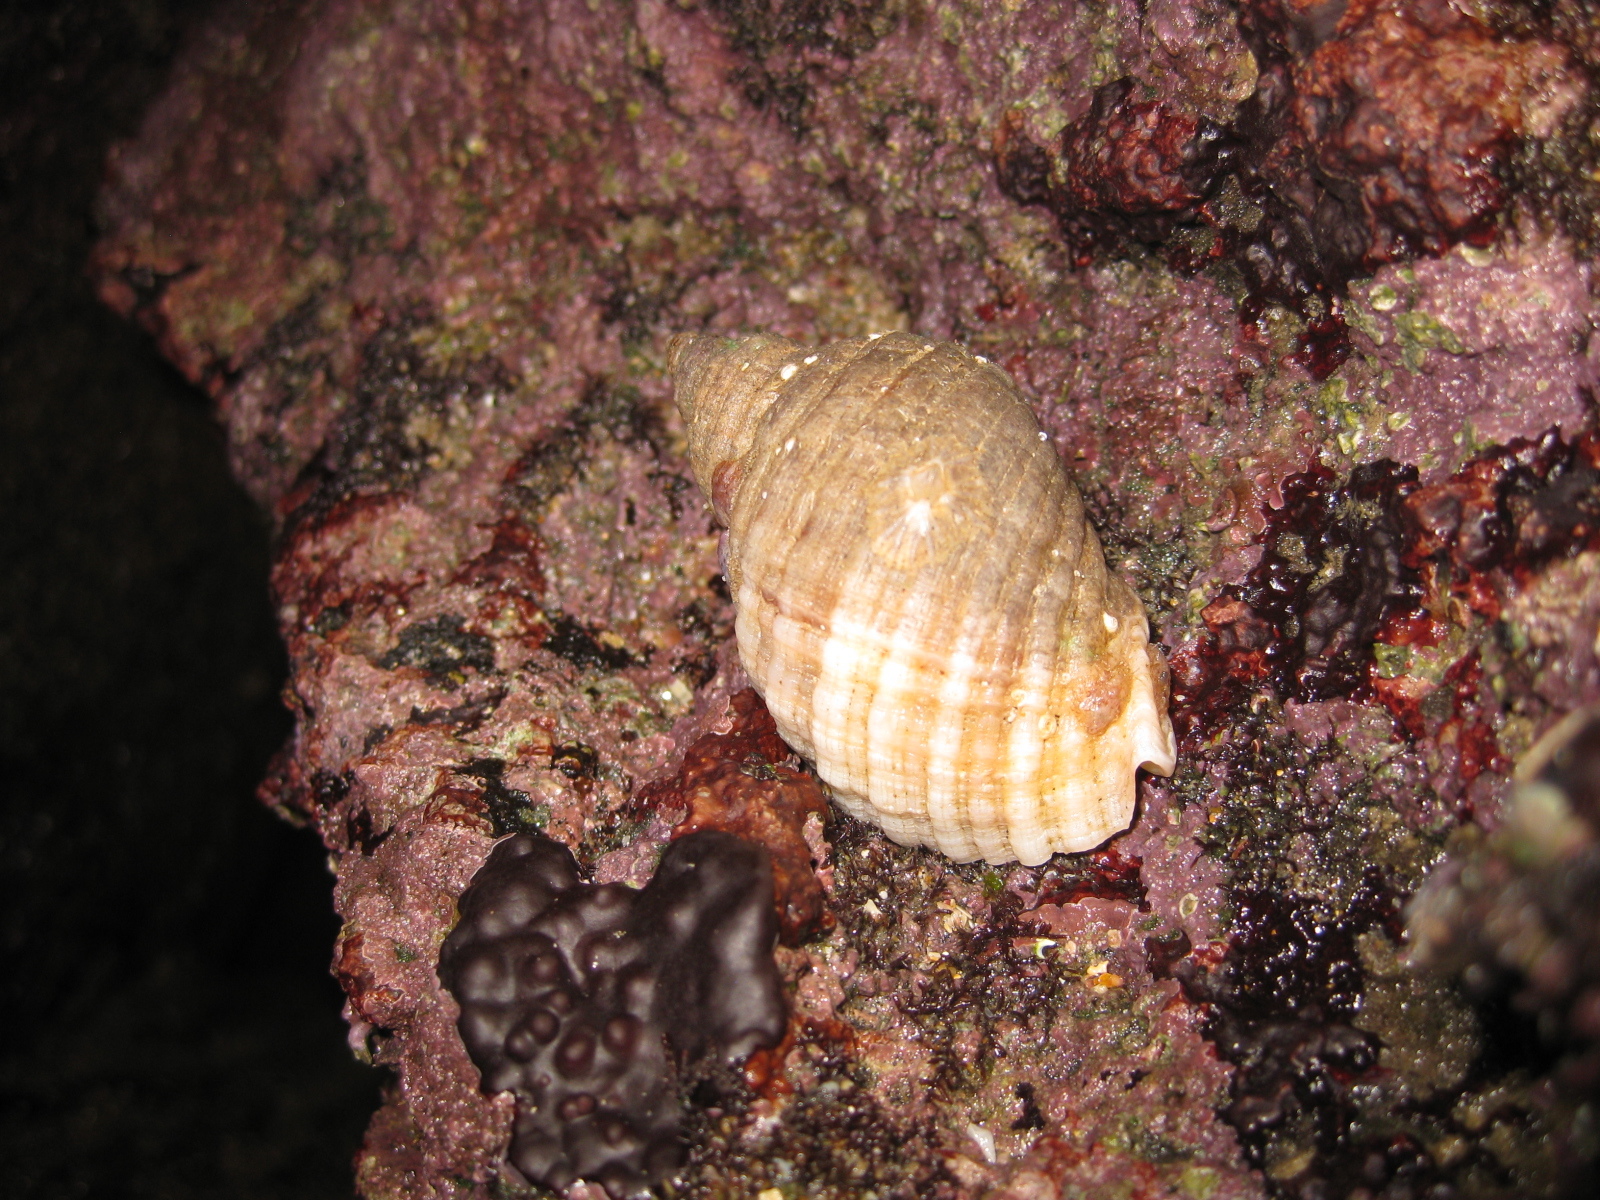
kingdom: Animalia
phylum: Mollusca
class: Gastropoda
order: Neogastropoda
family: Muricidae
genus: Dicathais
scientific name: Dicathais orbita
